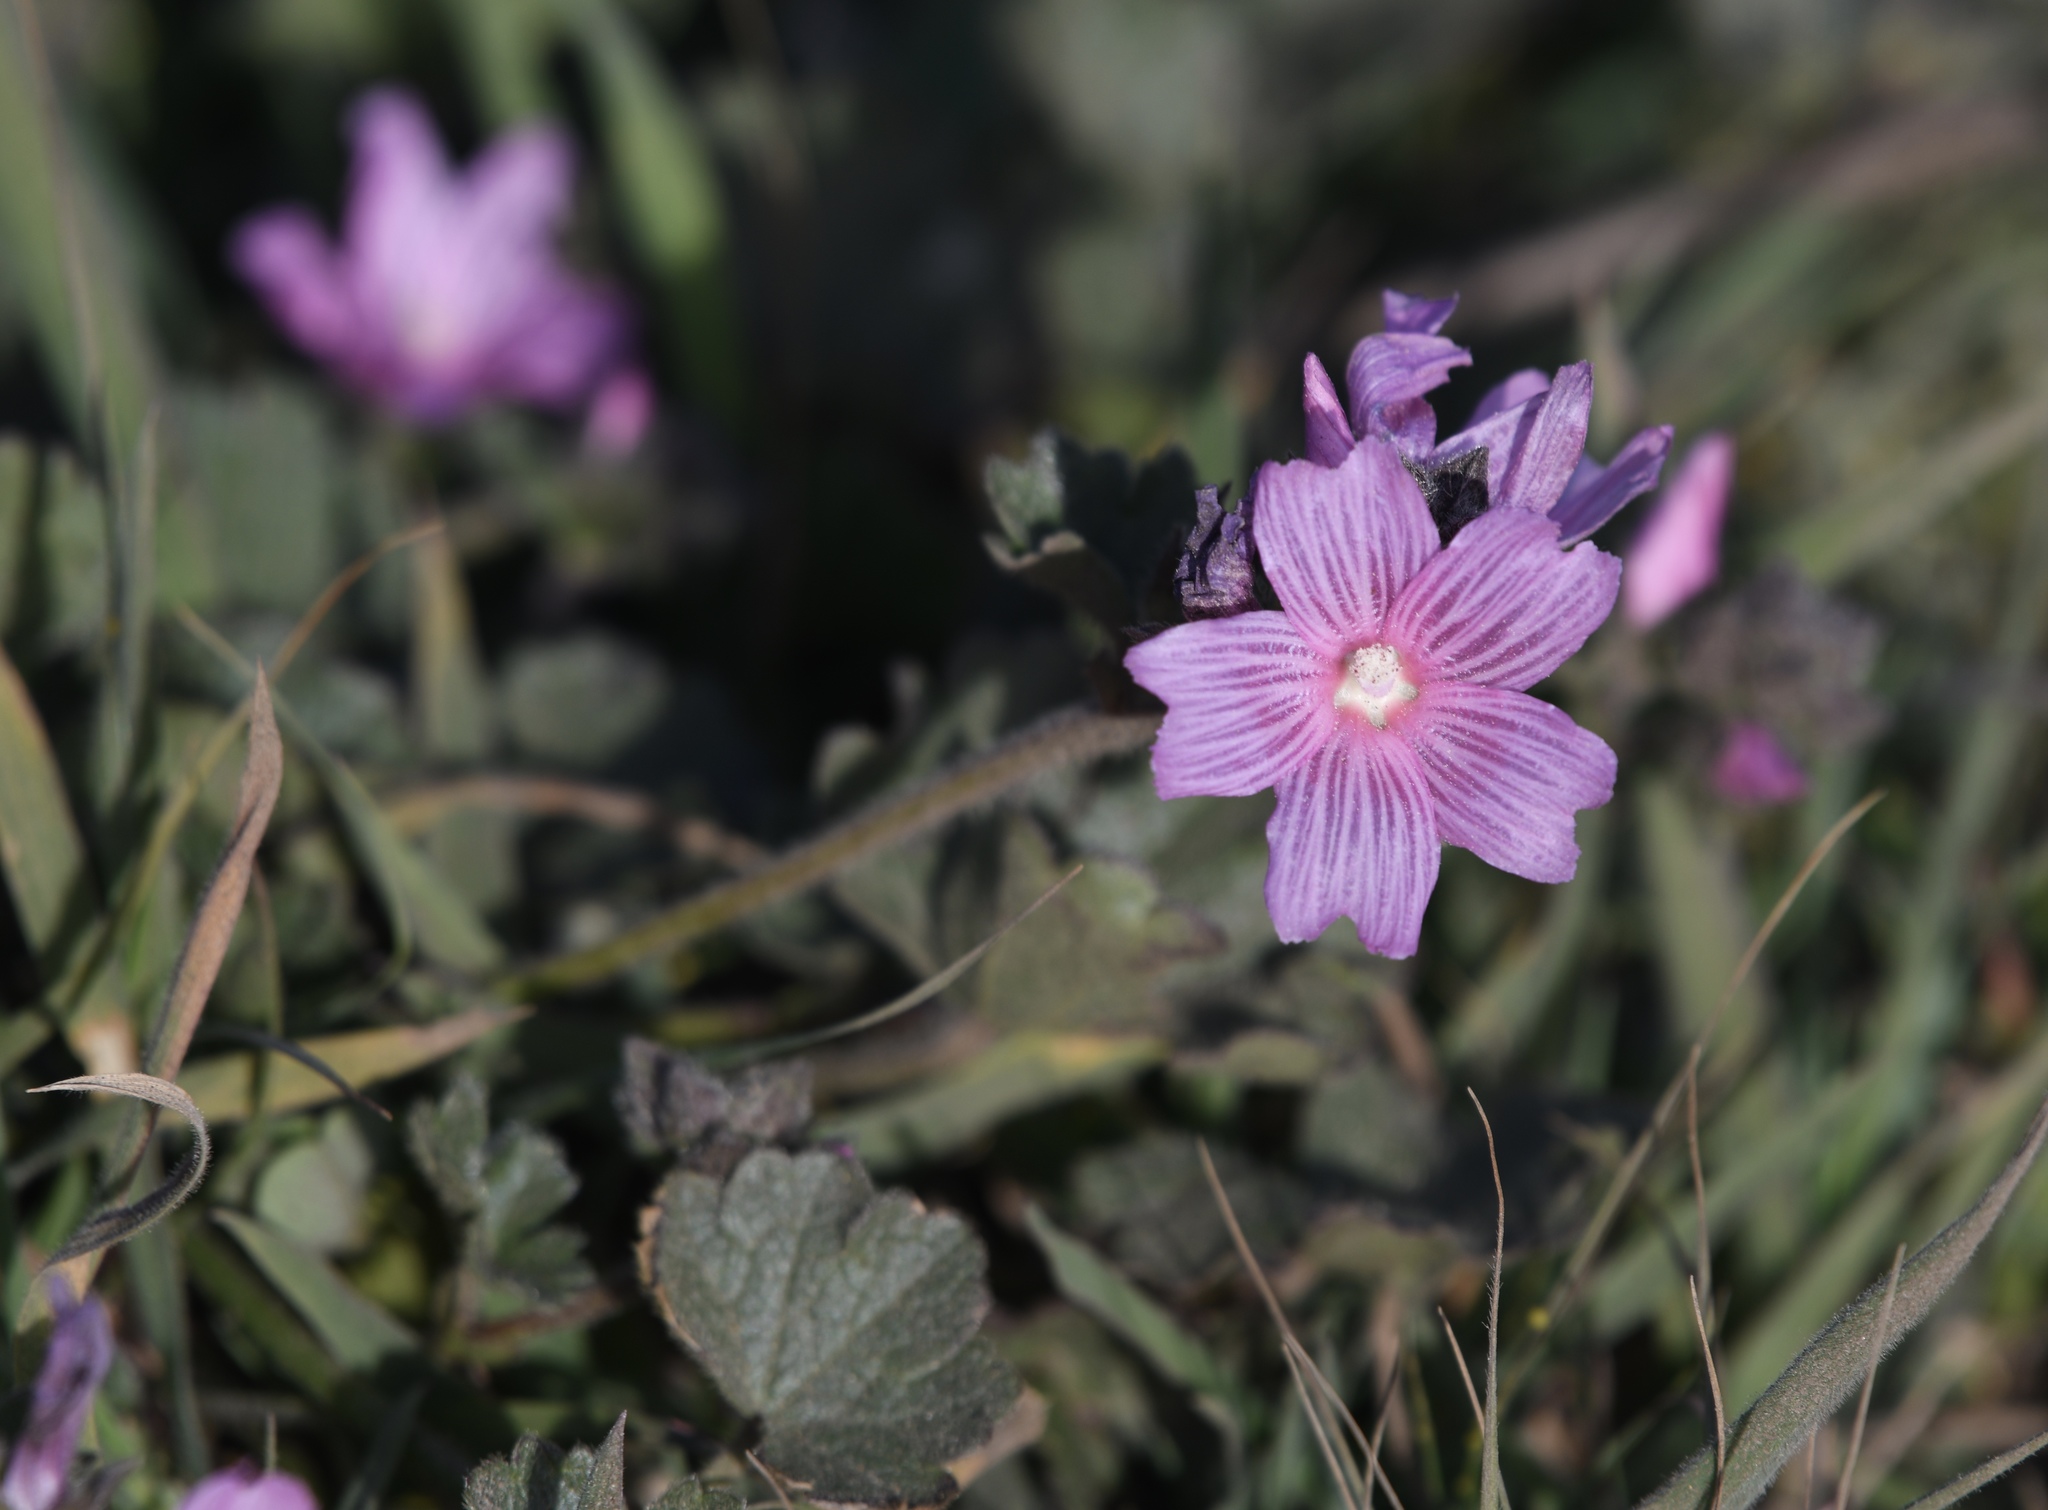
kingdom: Plantae
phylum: Tracheophyta
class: Magnoliopsida
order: Malvales
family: Malvaceae
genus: Sidalcea
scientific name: Sidalcea malviflora
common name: Greek mallow
